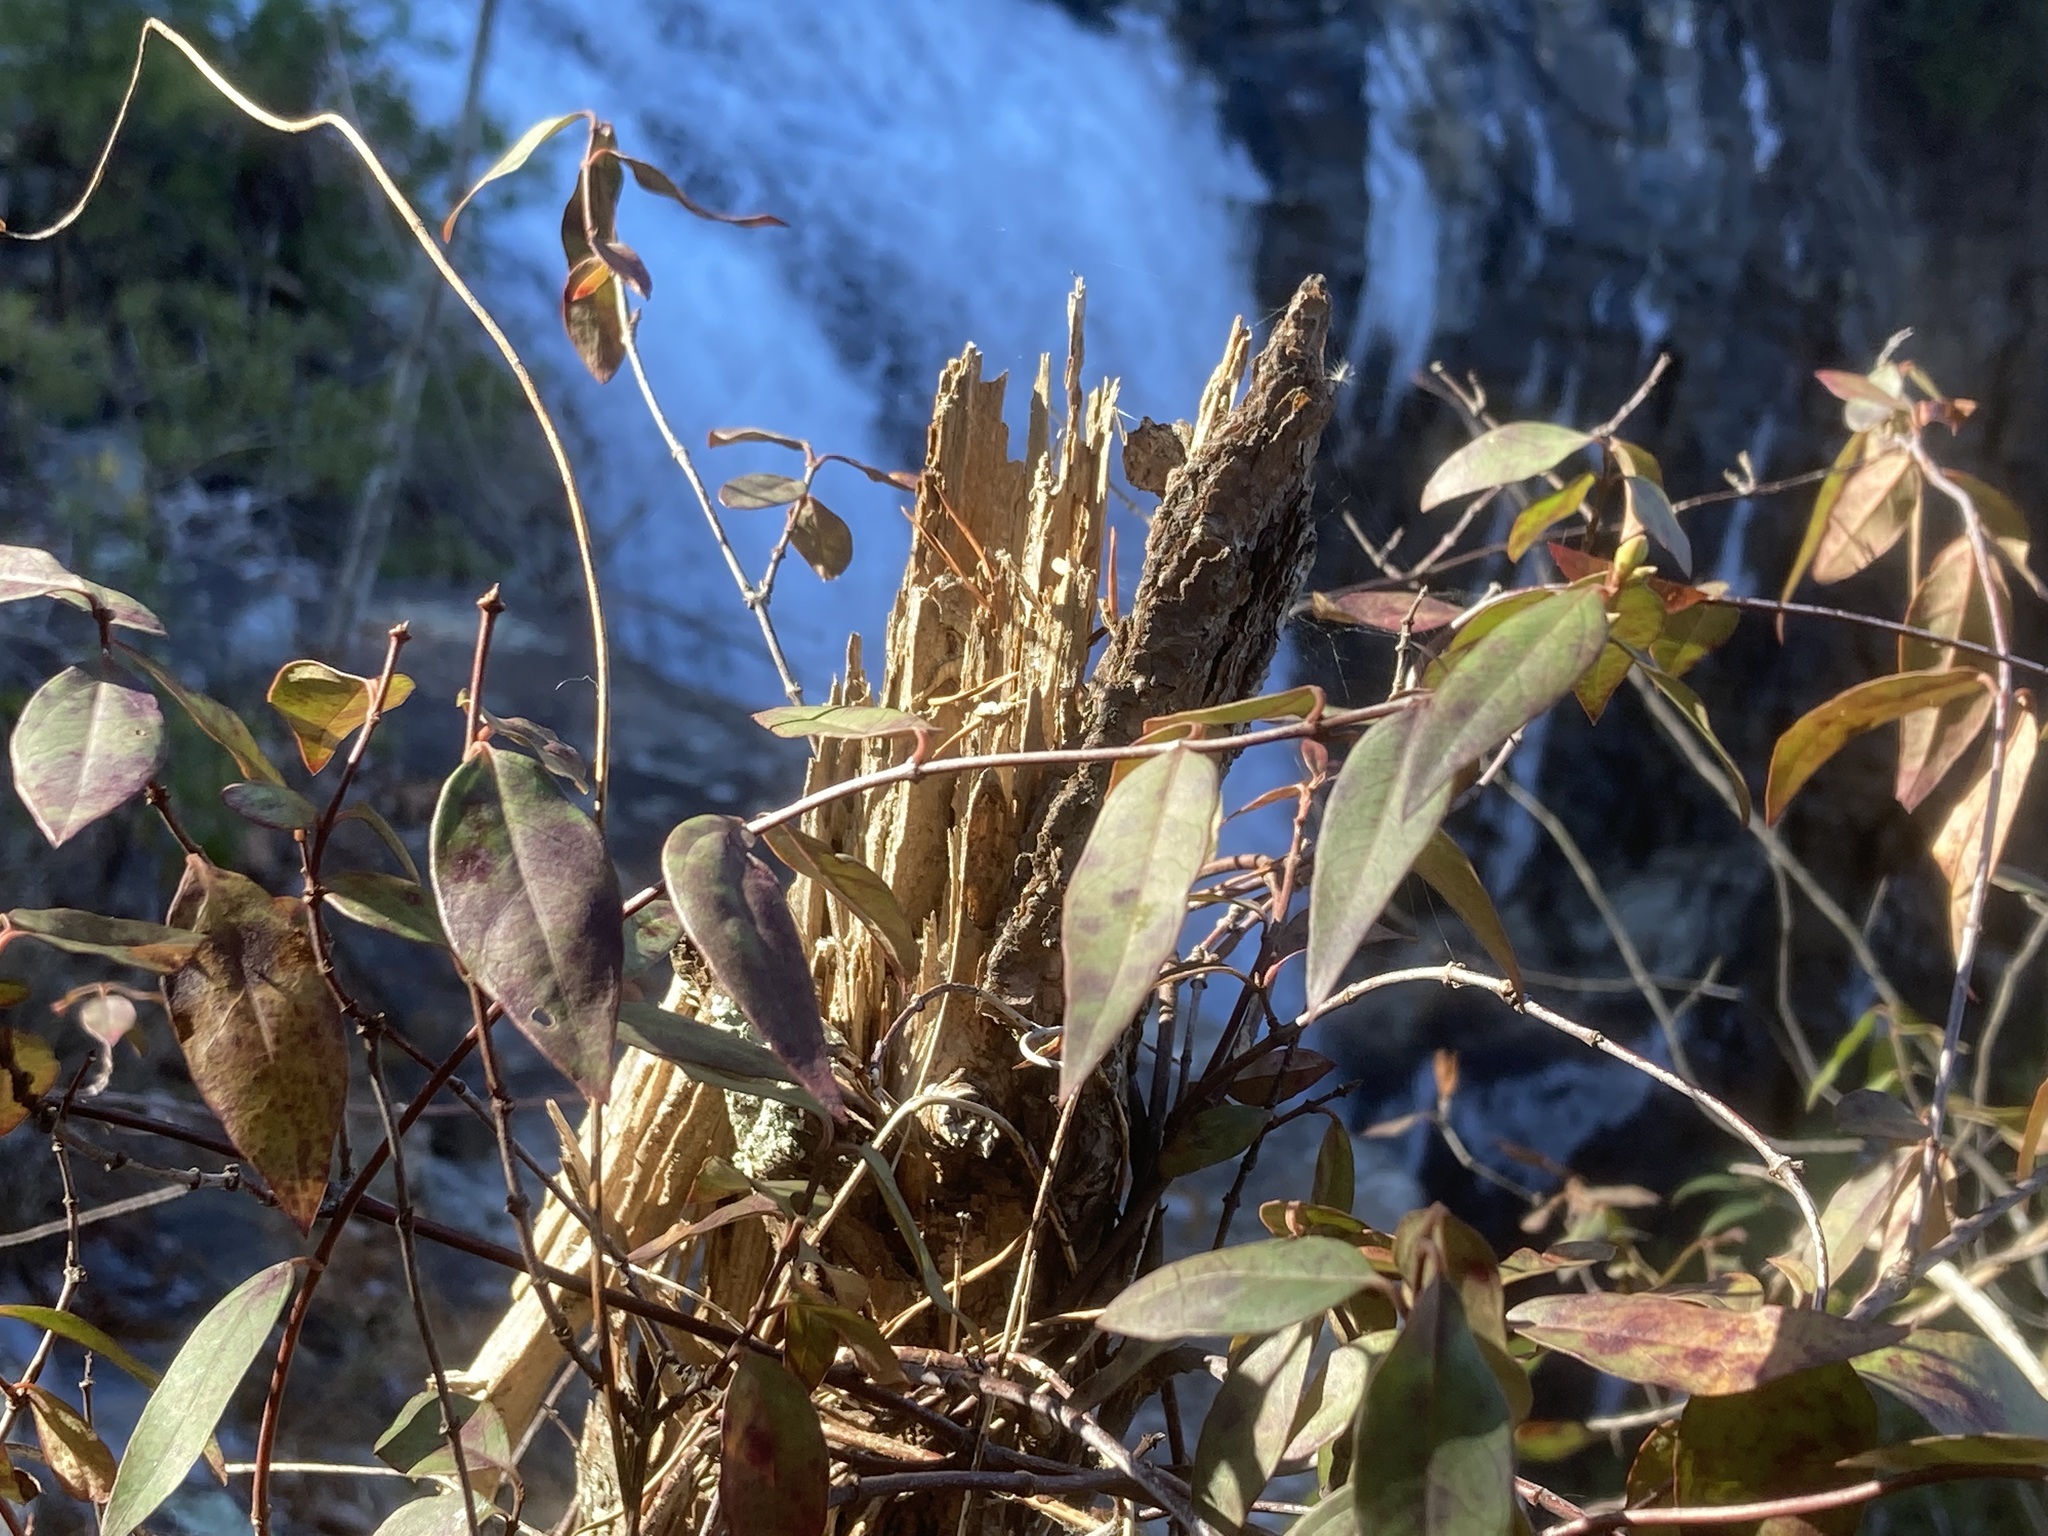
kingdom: Plantae
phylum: Tracheophyta
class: Magnoliopsida
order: Gentianales
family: Gelsemiaceae
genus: Gelsemium
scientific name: Gelsemium sempervirens
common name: Carolina-jasmine
